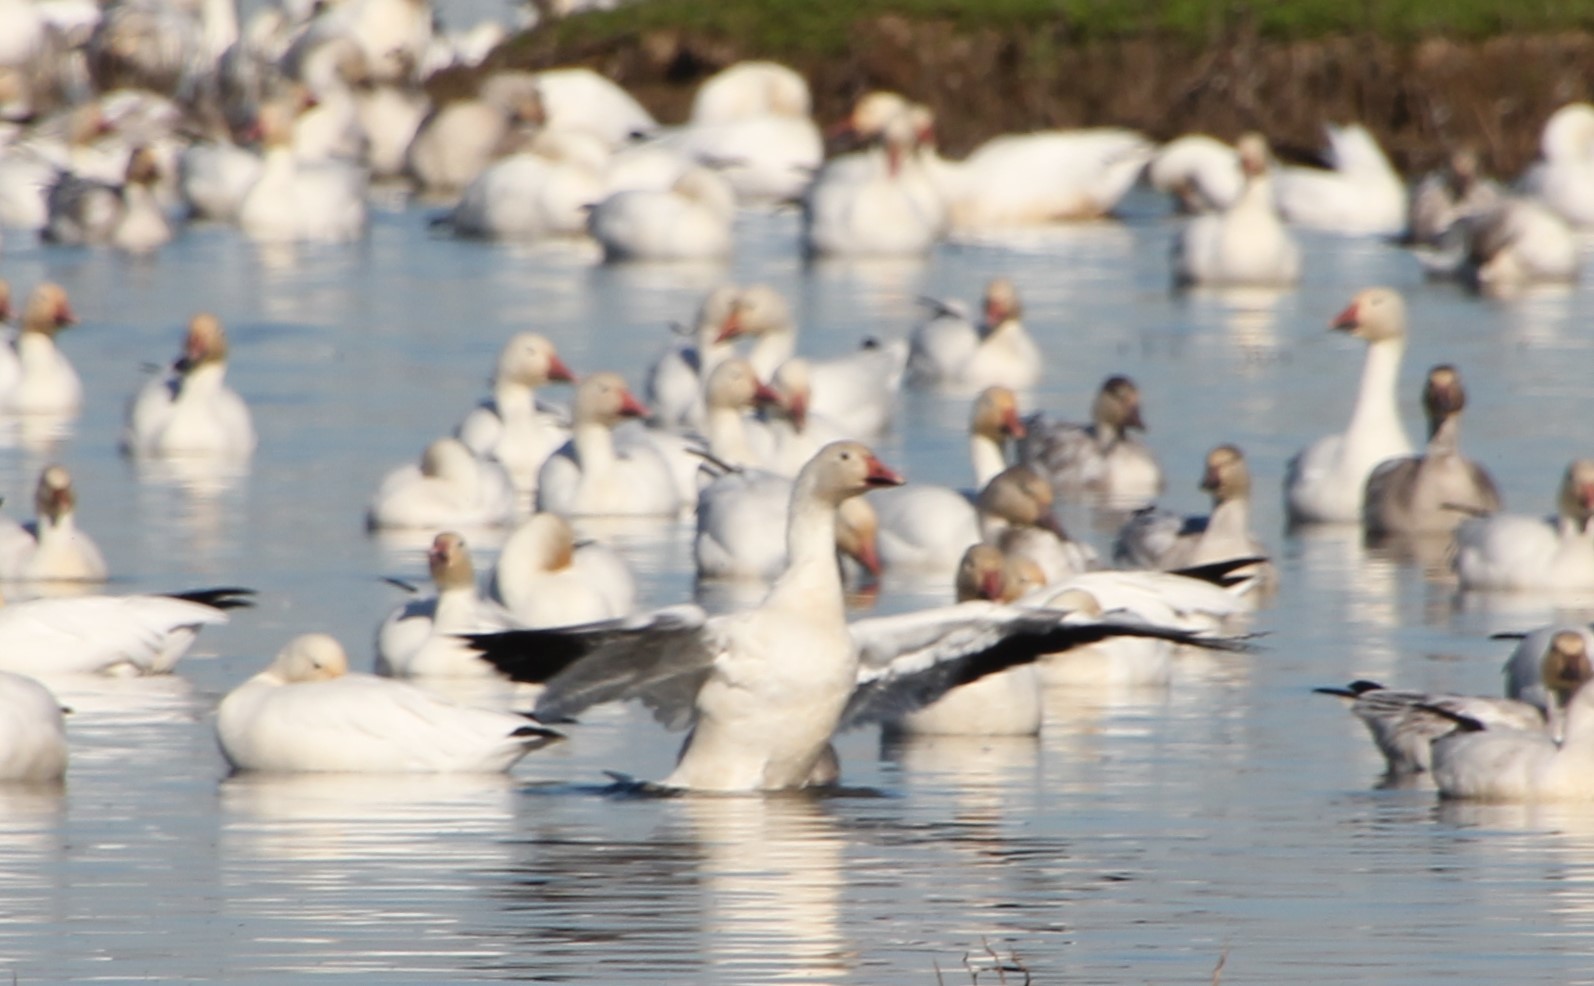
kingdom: Animalia
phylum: Chordata
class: Aves
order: Anseriformes
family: Anatidae
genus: Anser
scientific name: Anser caerulescens
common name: Snow goose
